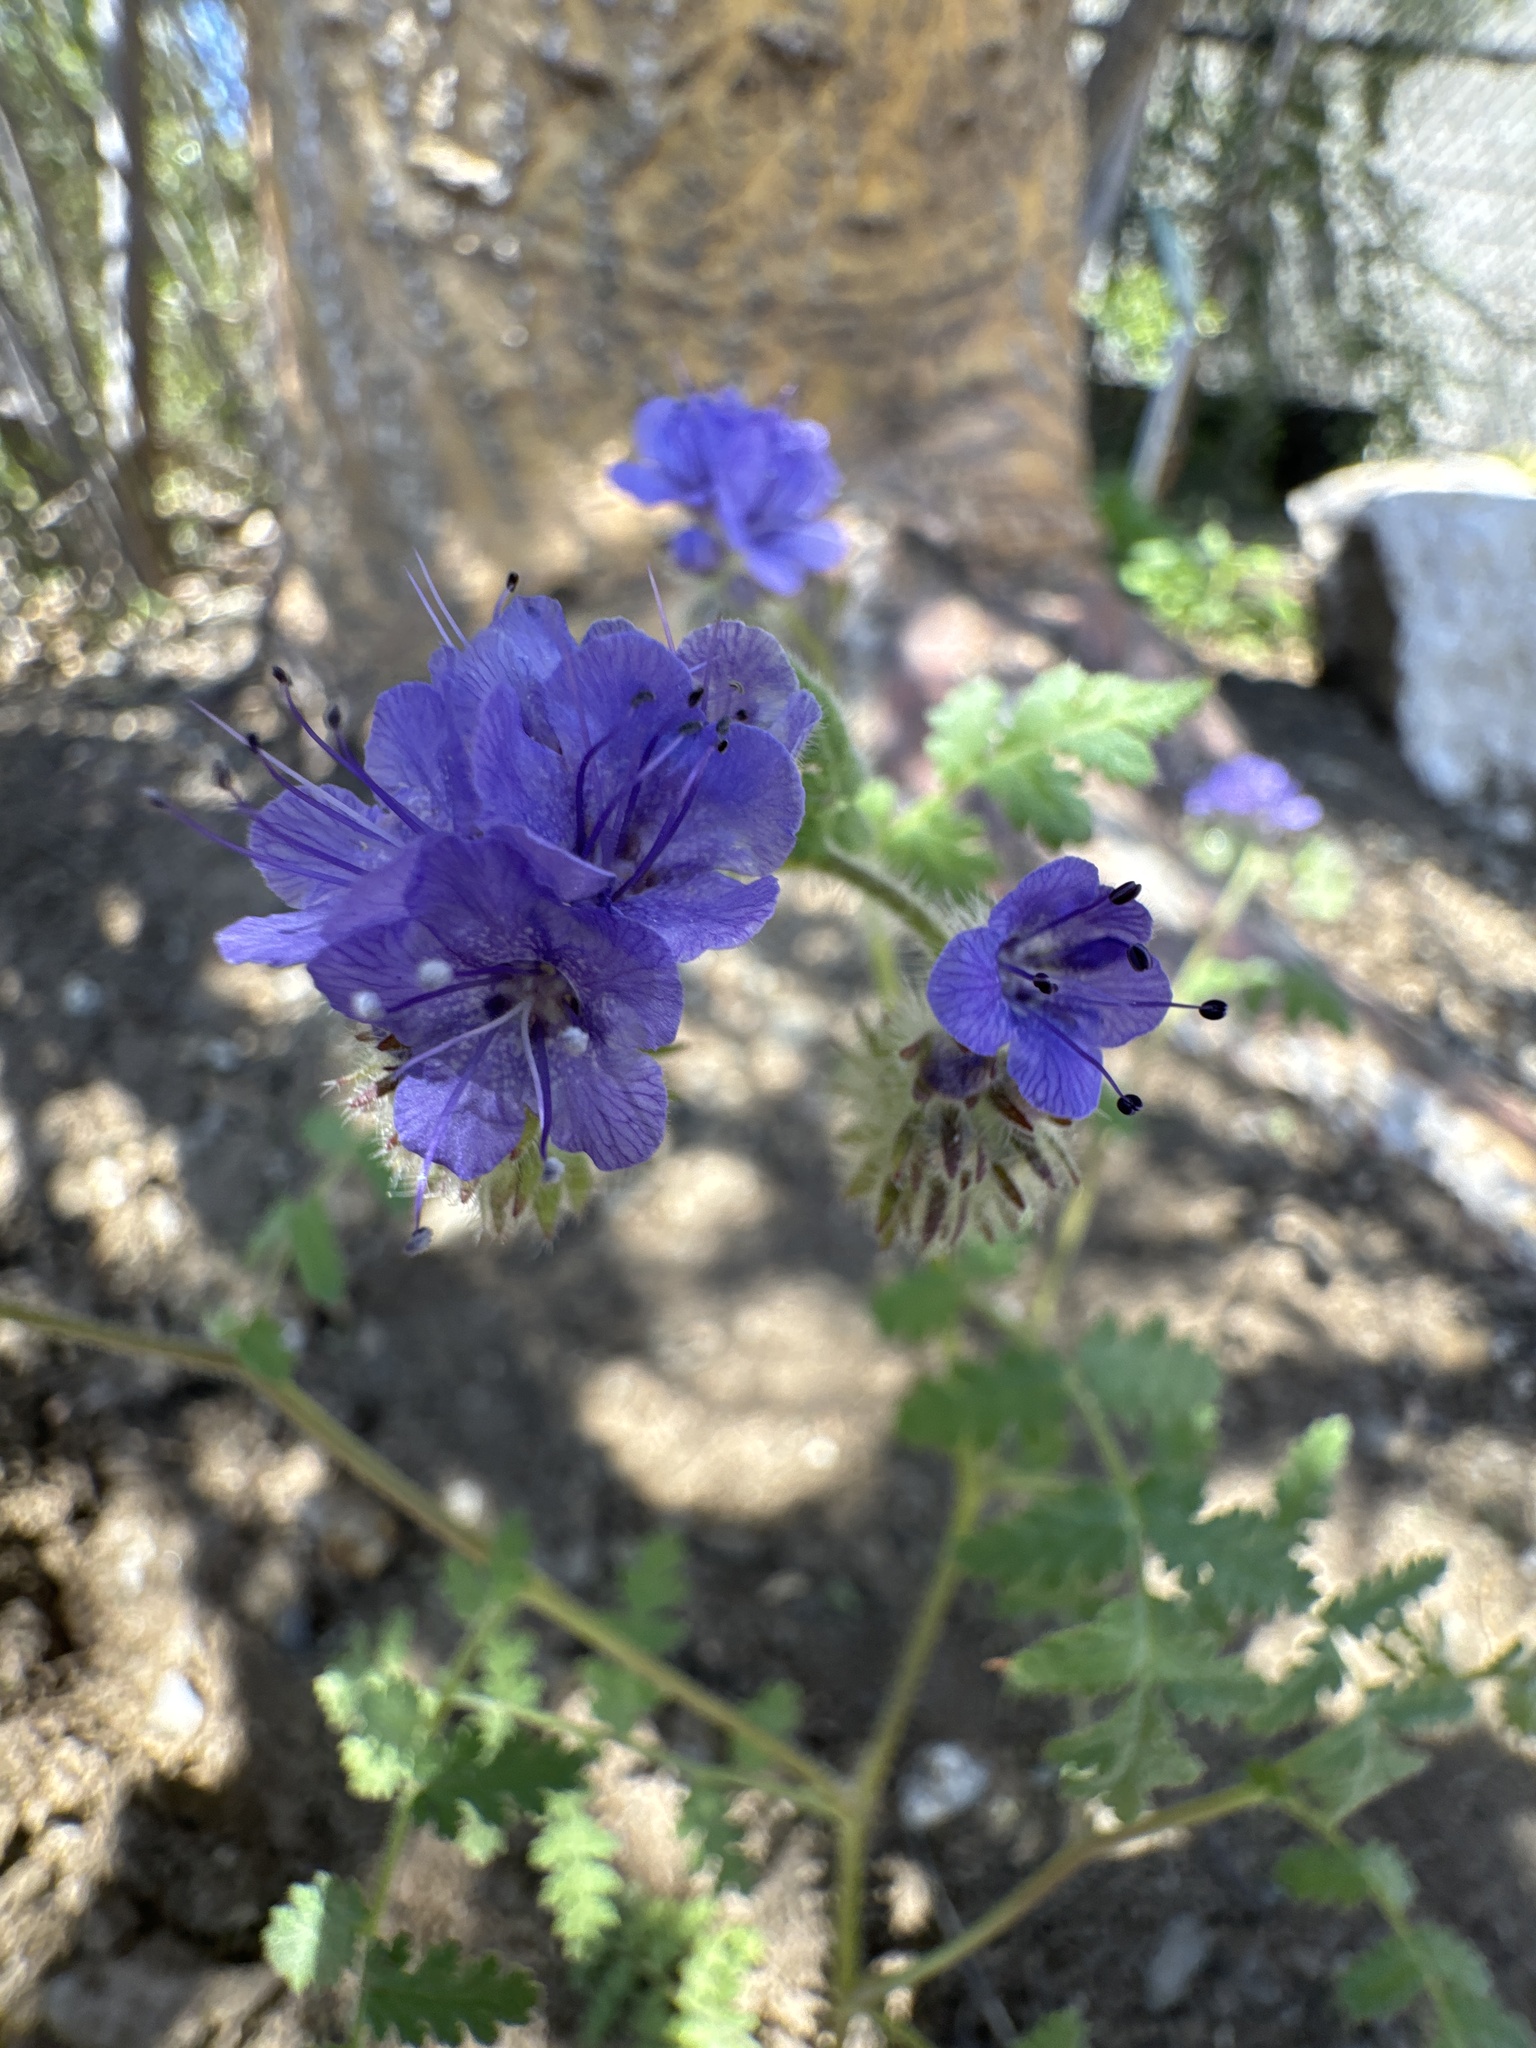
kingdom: Plantae
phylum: Tracheophyta
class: Magnoliopsida
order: Boraginales
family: Hydrophyllaceae
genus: Phacelia
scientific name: Phacelia distans
